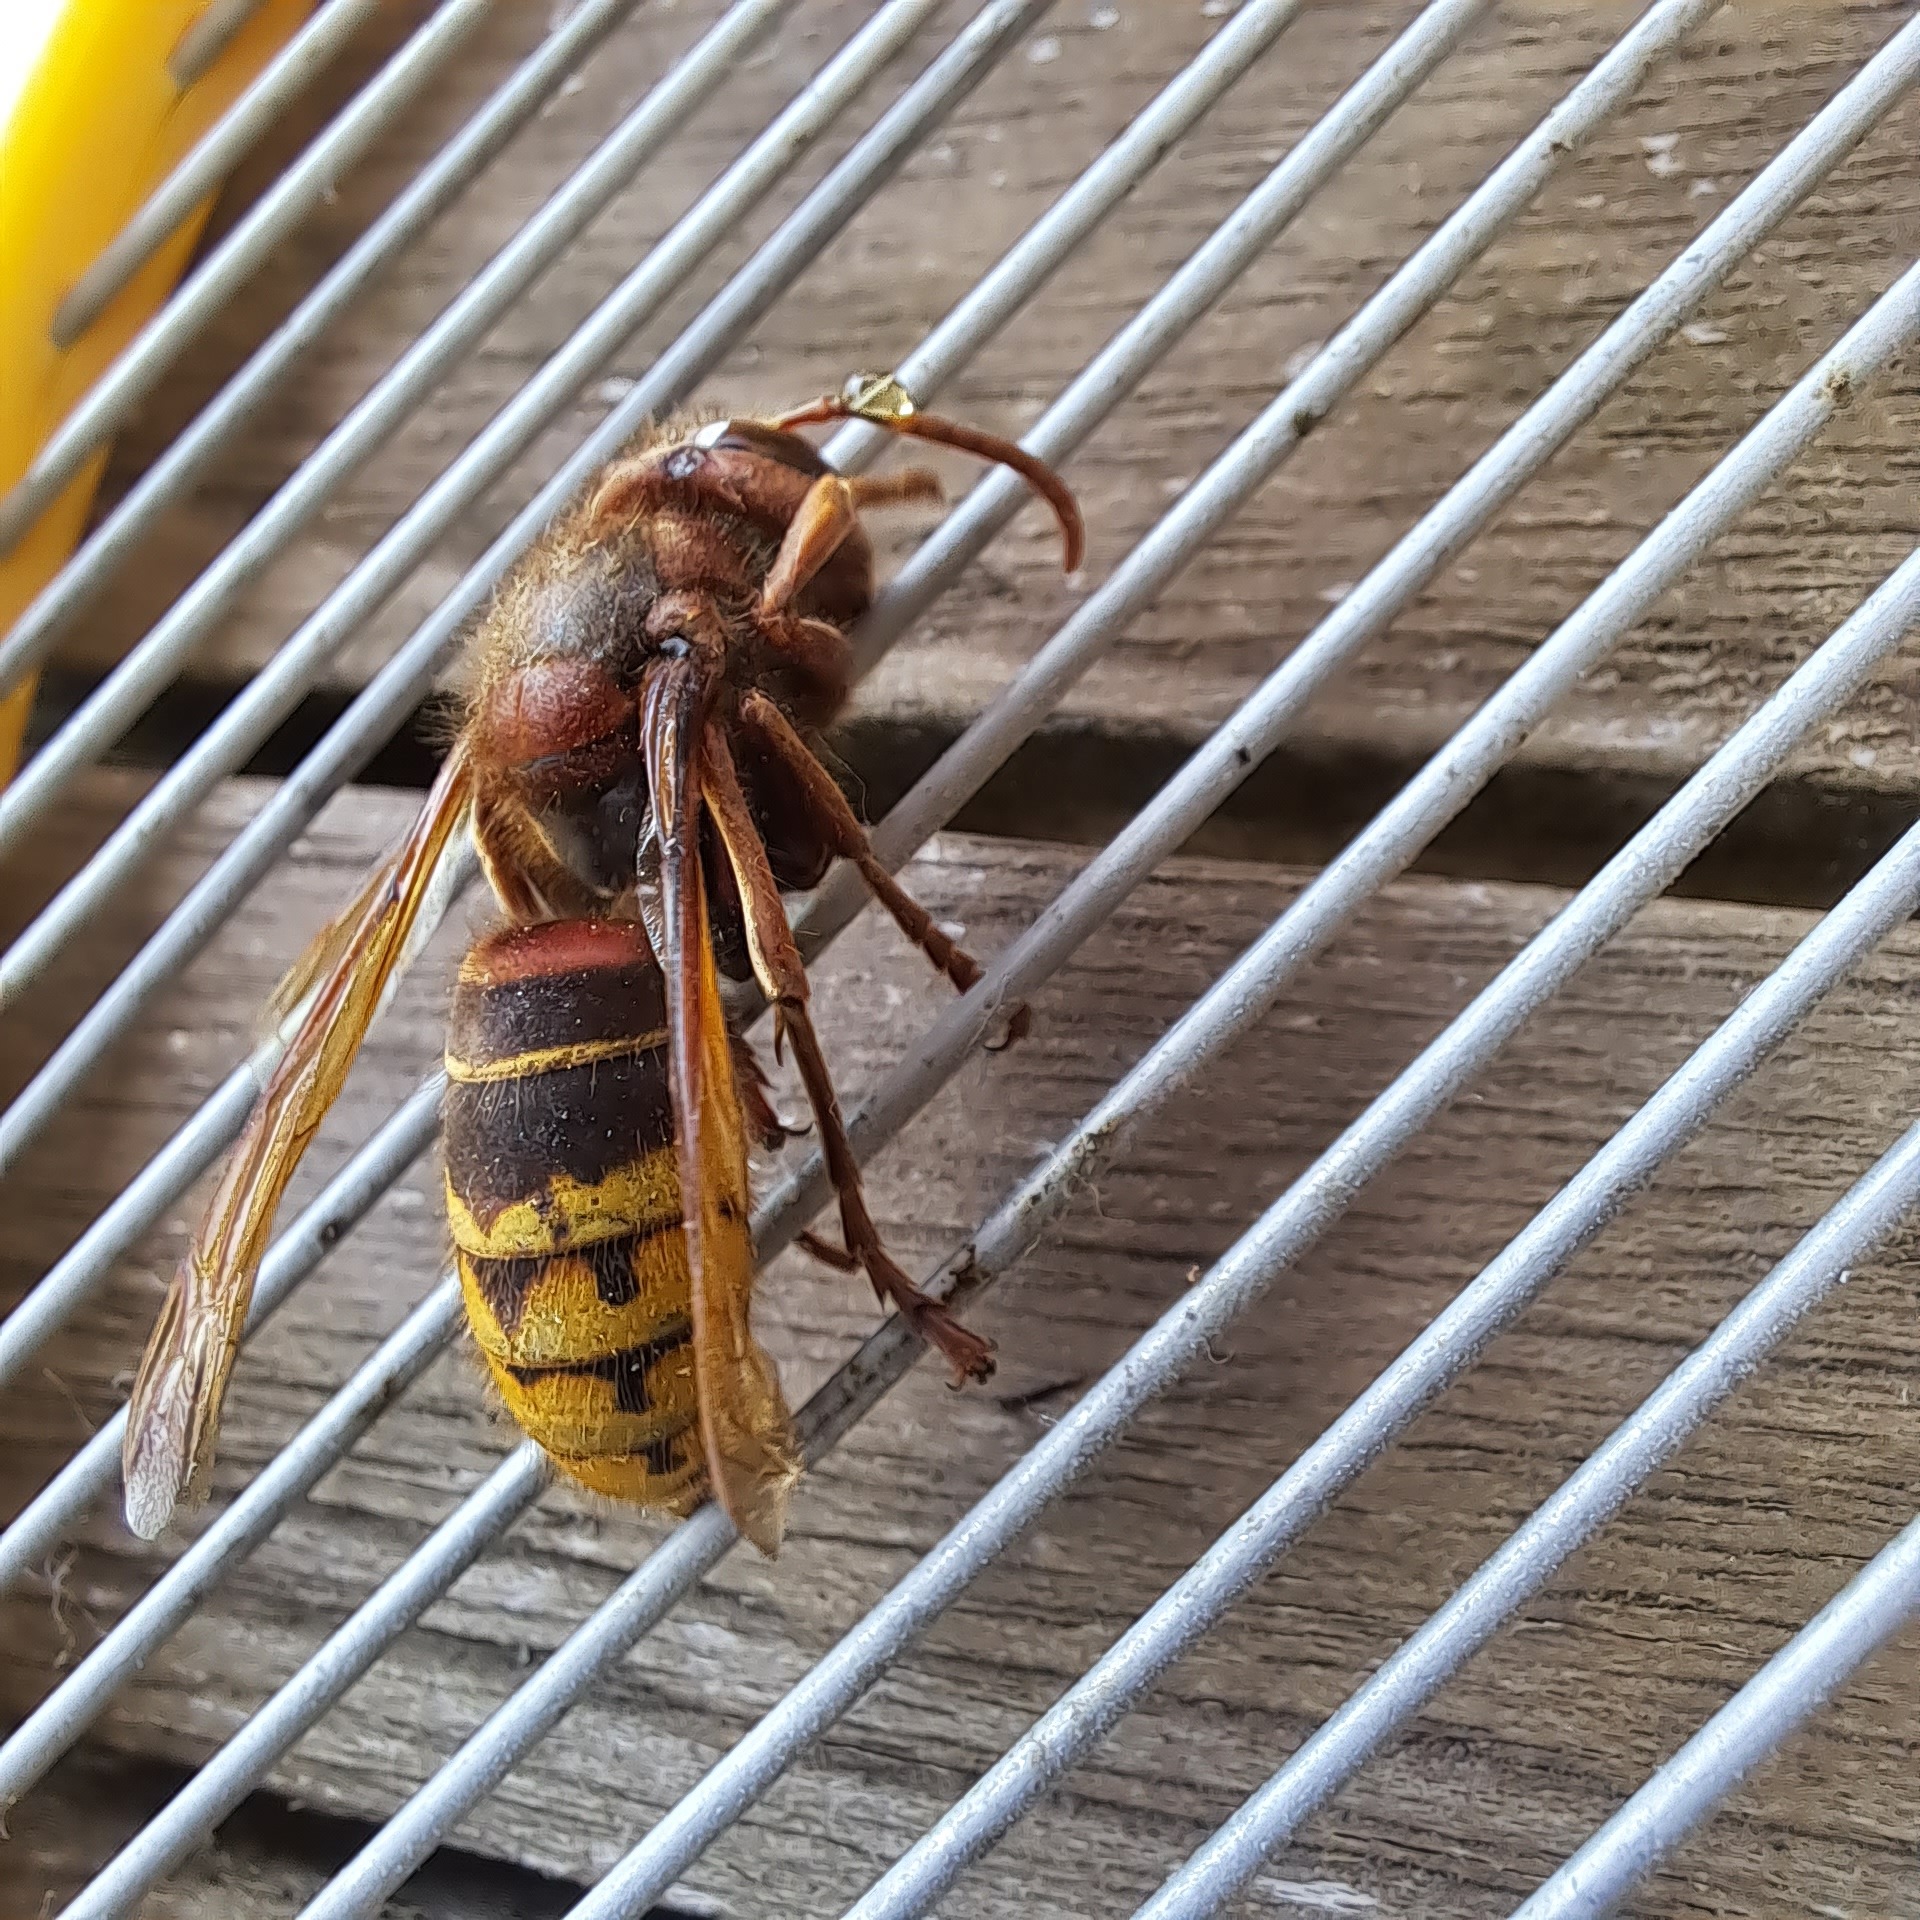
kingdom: Animalia
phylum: Arthropoda
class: Insecta
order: Hymenoptera
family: Vespidae
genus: Vespa
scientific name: Vespa crabro
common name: Hornet
